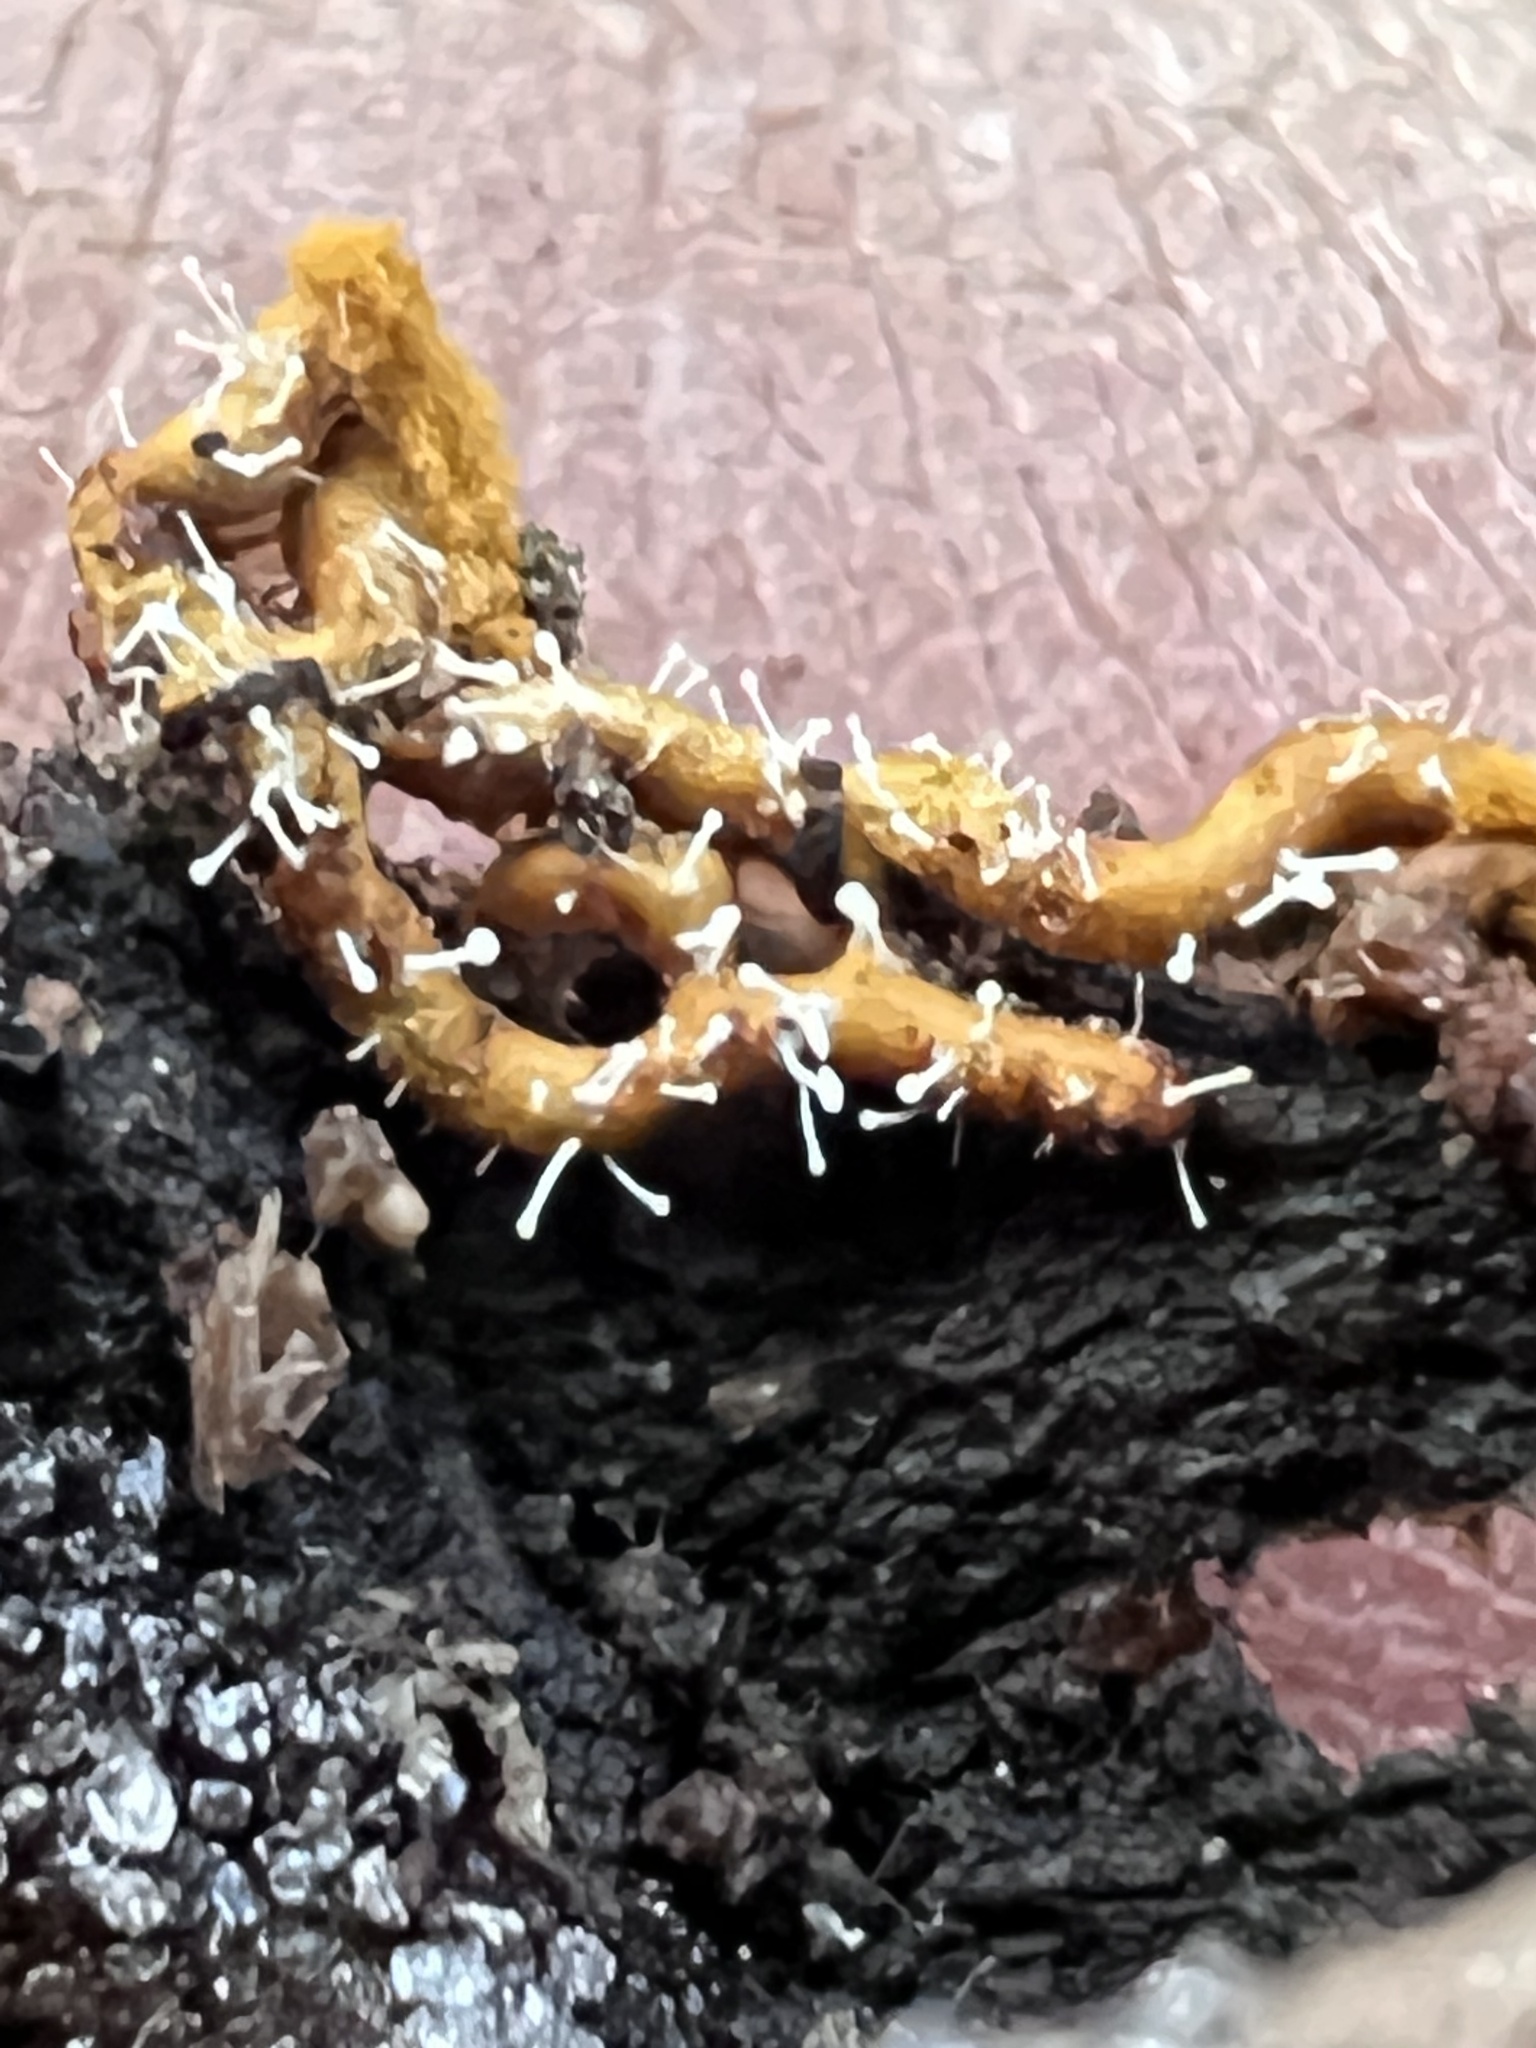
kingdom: Fungi
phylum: Ascomycota
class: Sordariomycetes
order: Hypocreales
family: Ophiocordycipitaceae
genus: Polycephalomyces
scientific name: Polycephalomyces tomentosus
